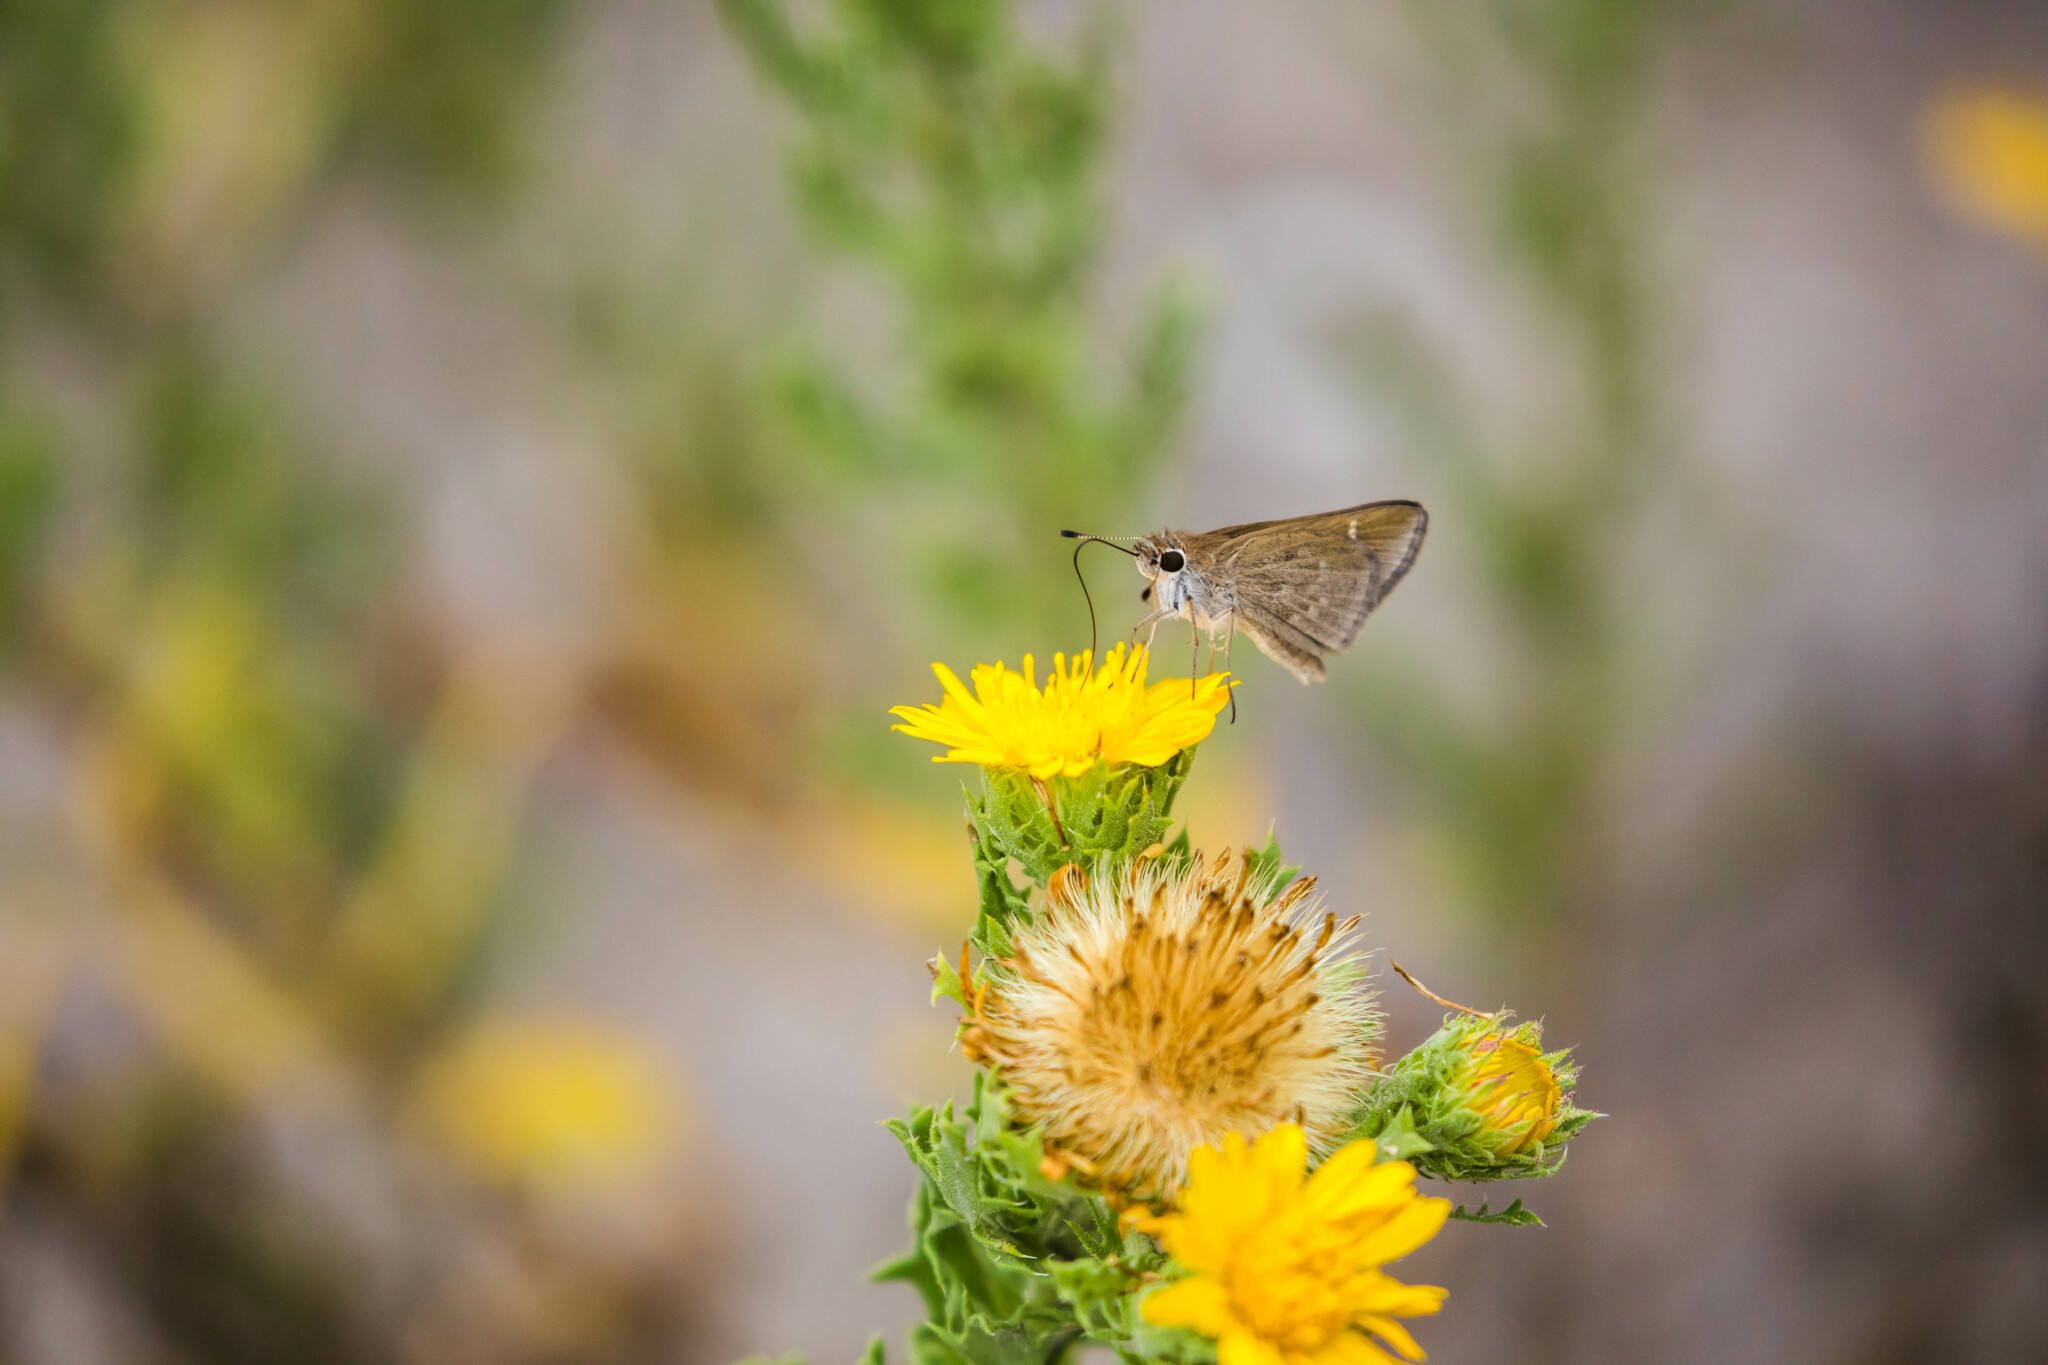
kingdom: Animalia
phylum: Arthropoda
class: Insecta
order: Lepidoptera
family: Hesperiidae
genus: Lerodea
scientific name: Lerodea eufala
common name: Eufala skipper
